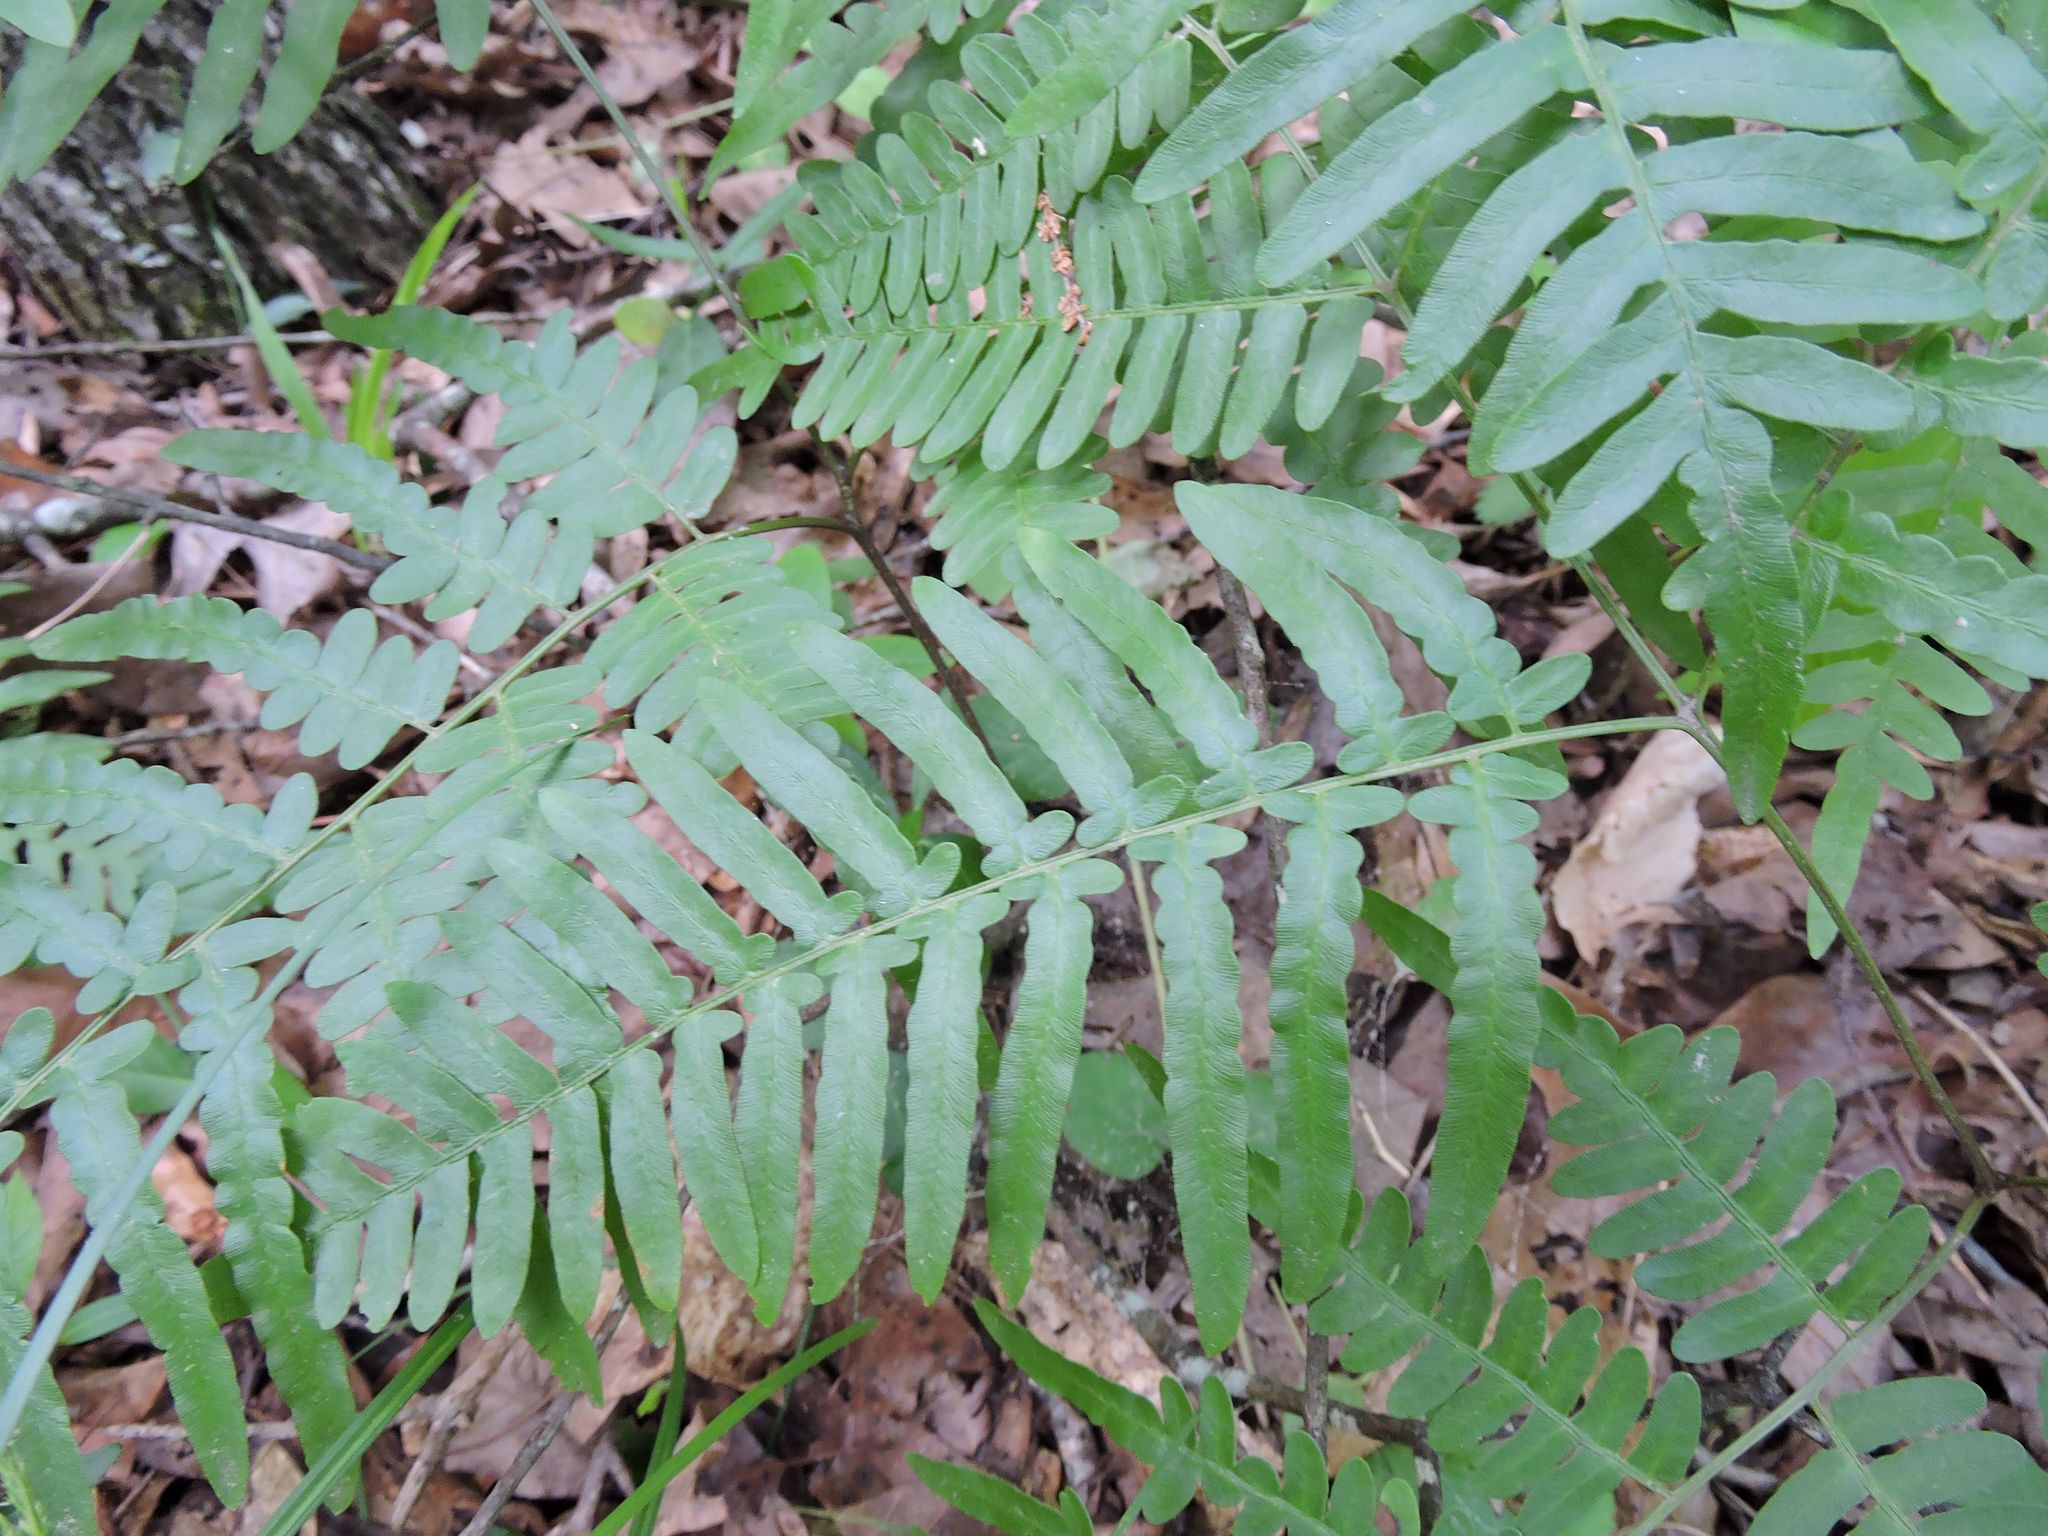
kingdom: Plantae
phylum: Tracheophyta
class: Polypodiopsida
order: Polypodiales
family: Dennstaedtiaceae
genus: Pteridium
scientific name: Pteridium aquilinum
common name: Bracken
